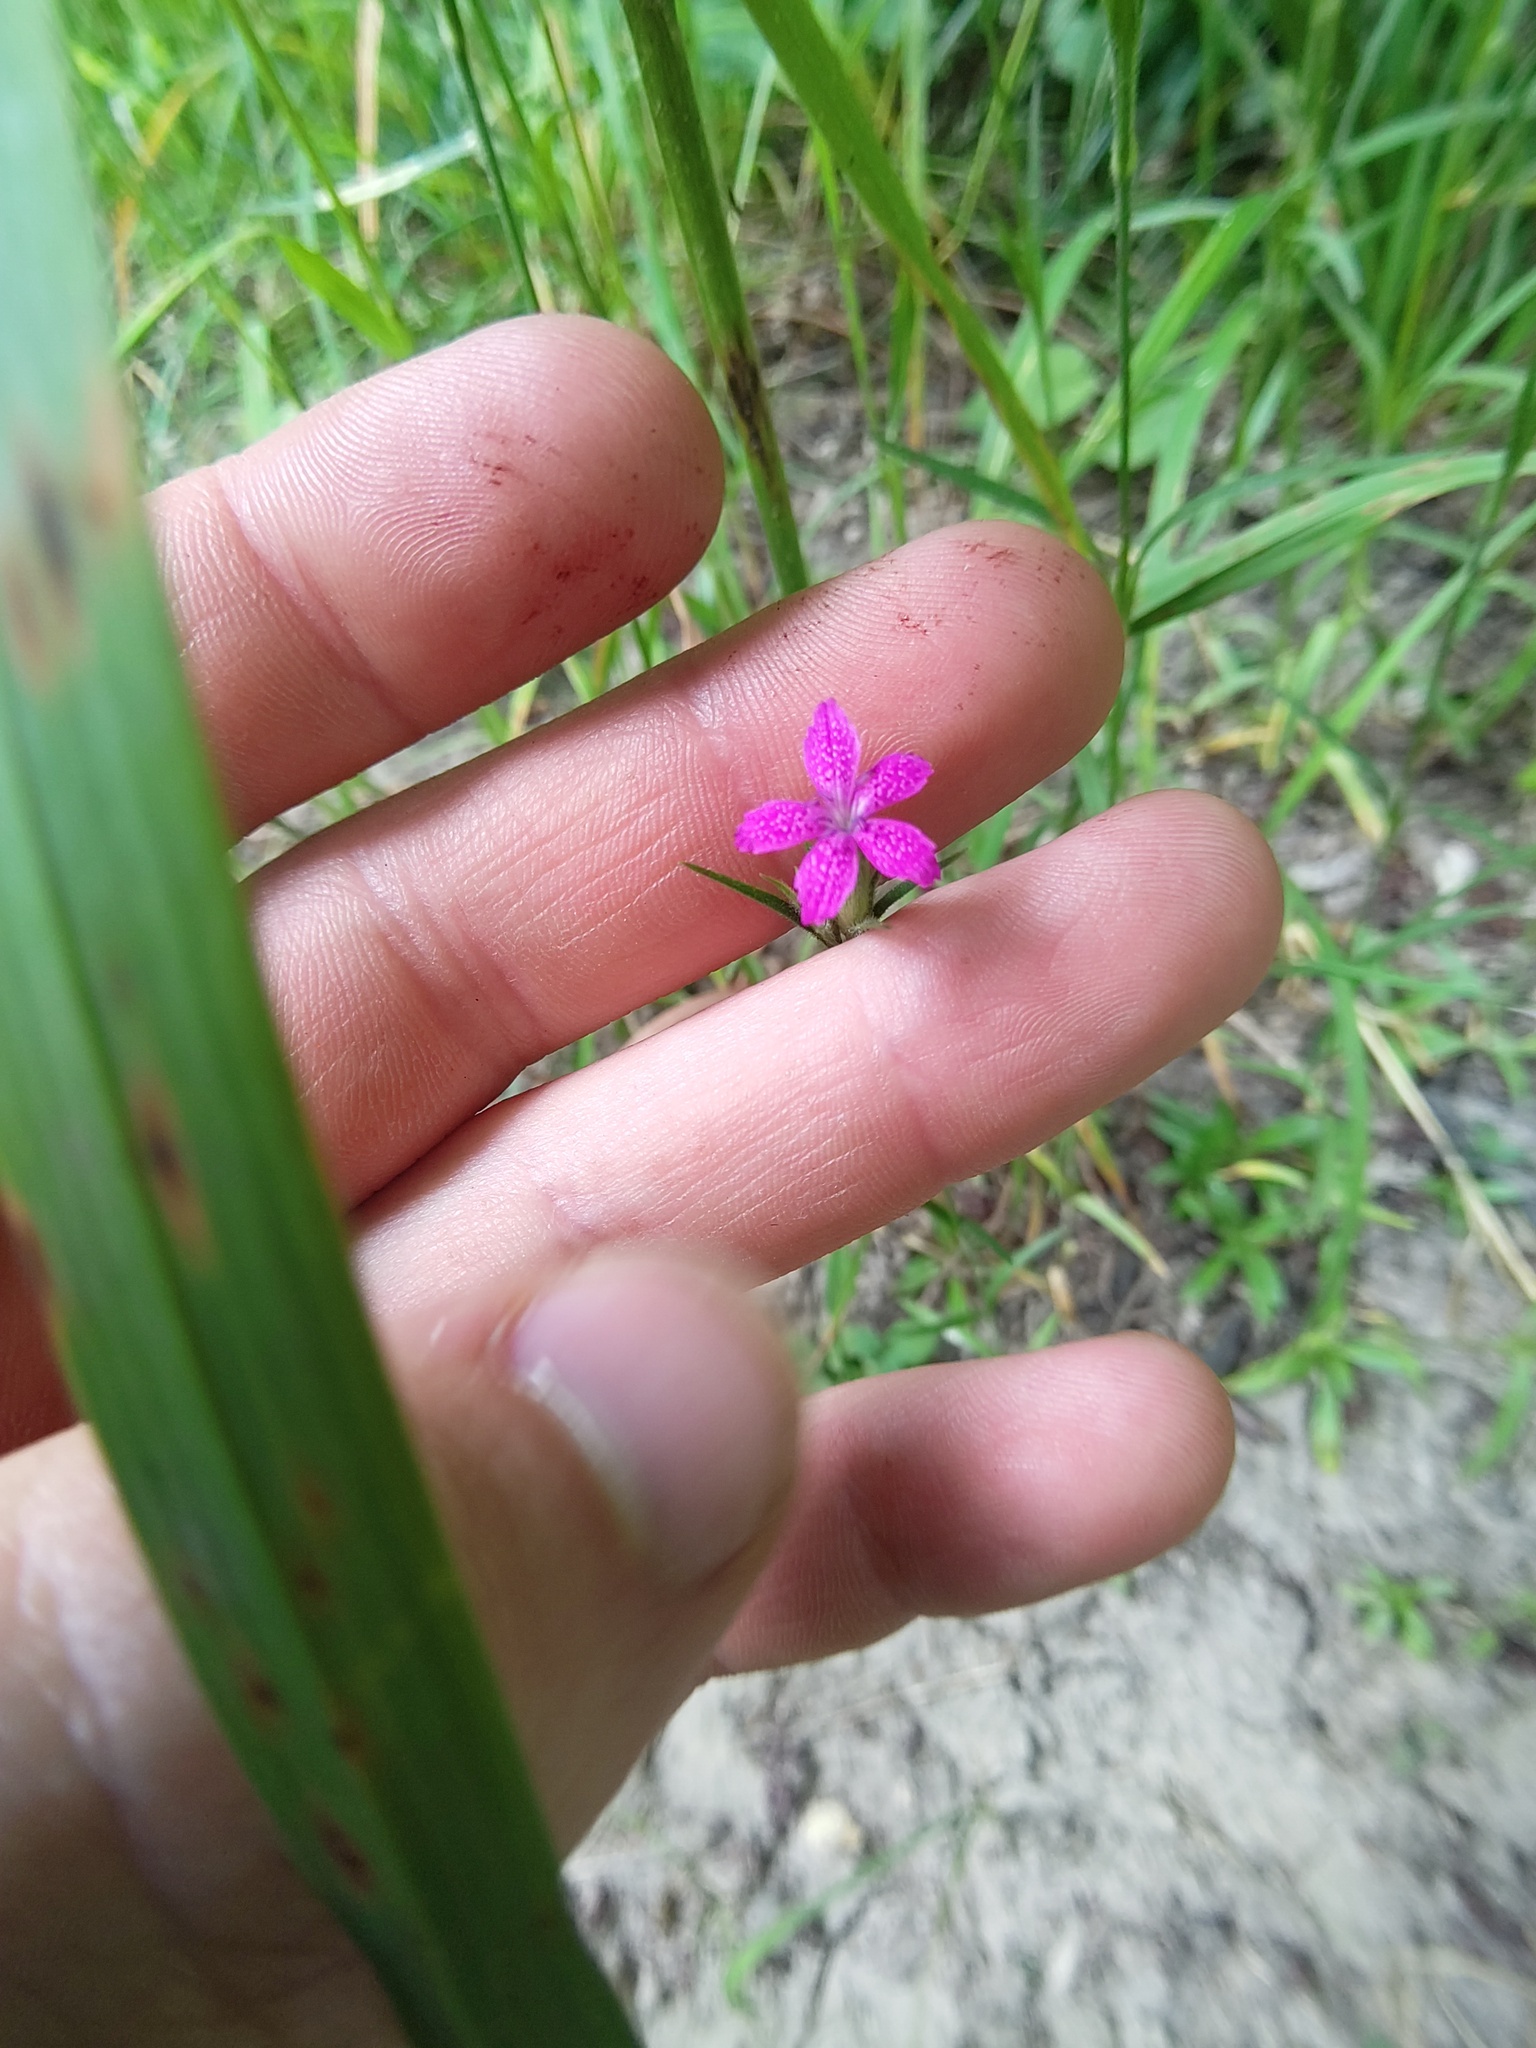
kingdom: Plantae
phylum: Tracheophyta
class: Magnoliopsida
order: Caryophyllales
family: Caryophyllaceae
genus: Dianthus
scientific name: Dianthus armeria
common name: Deptford pink
